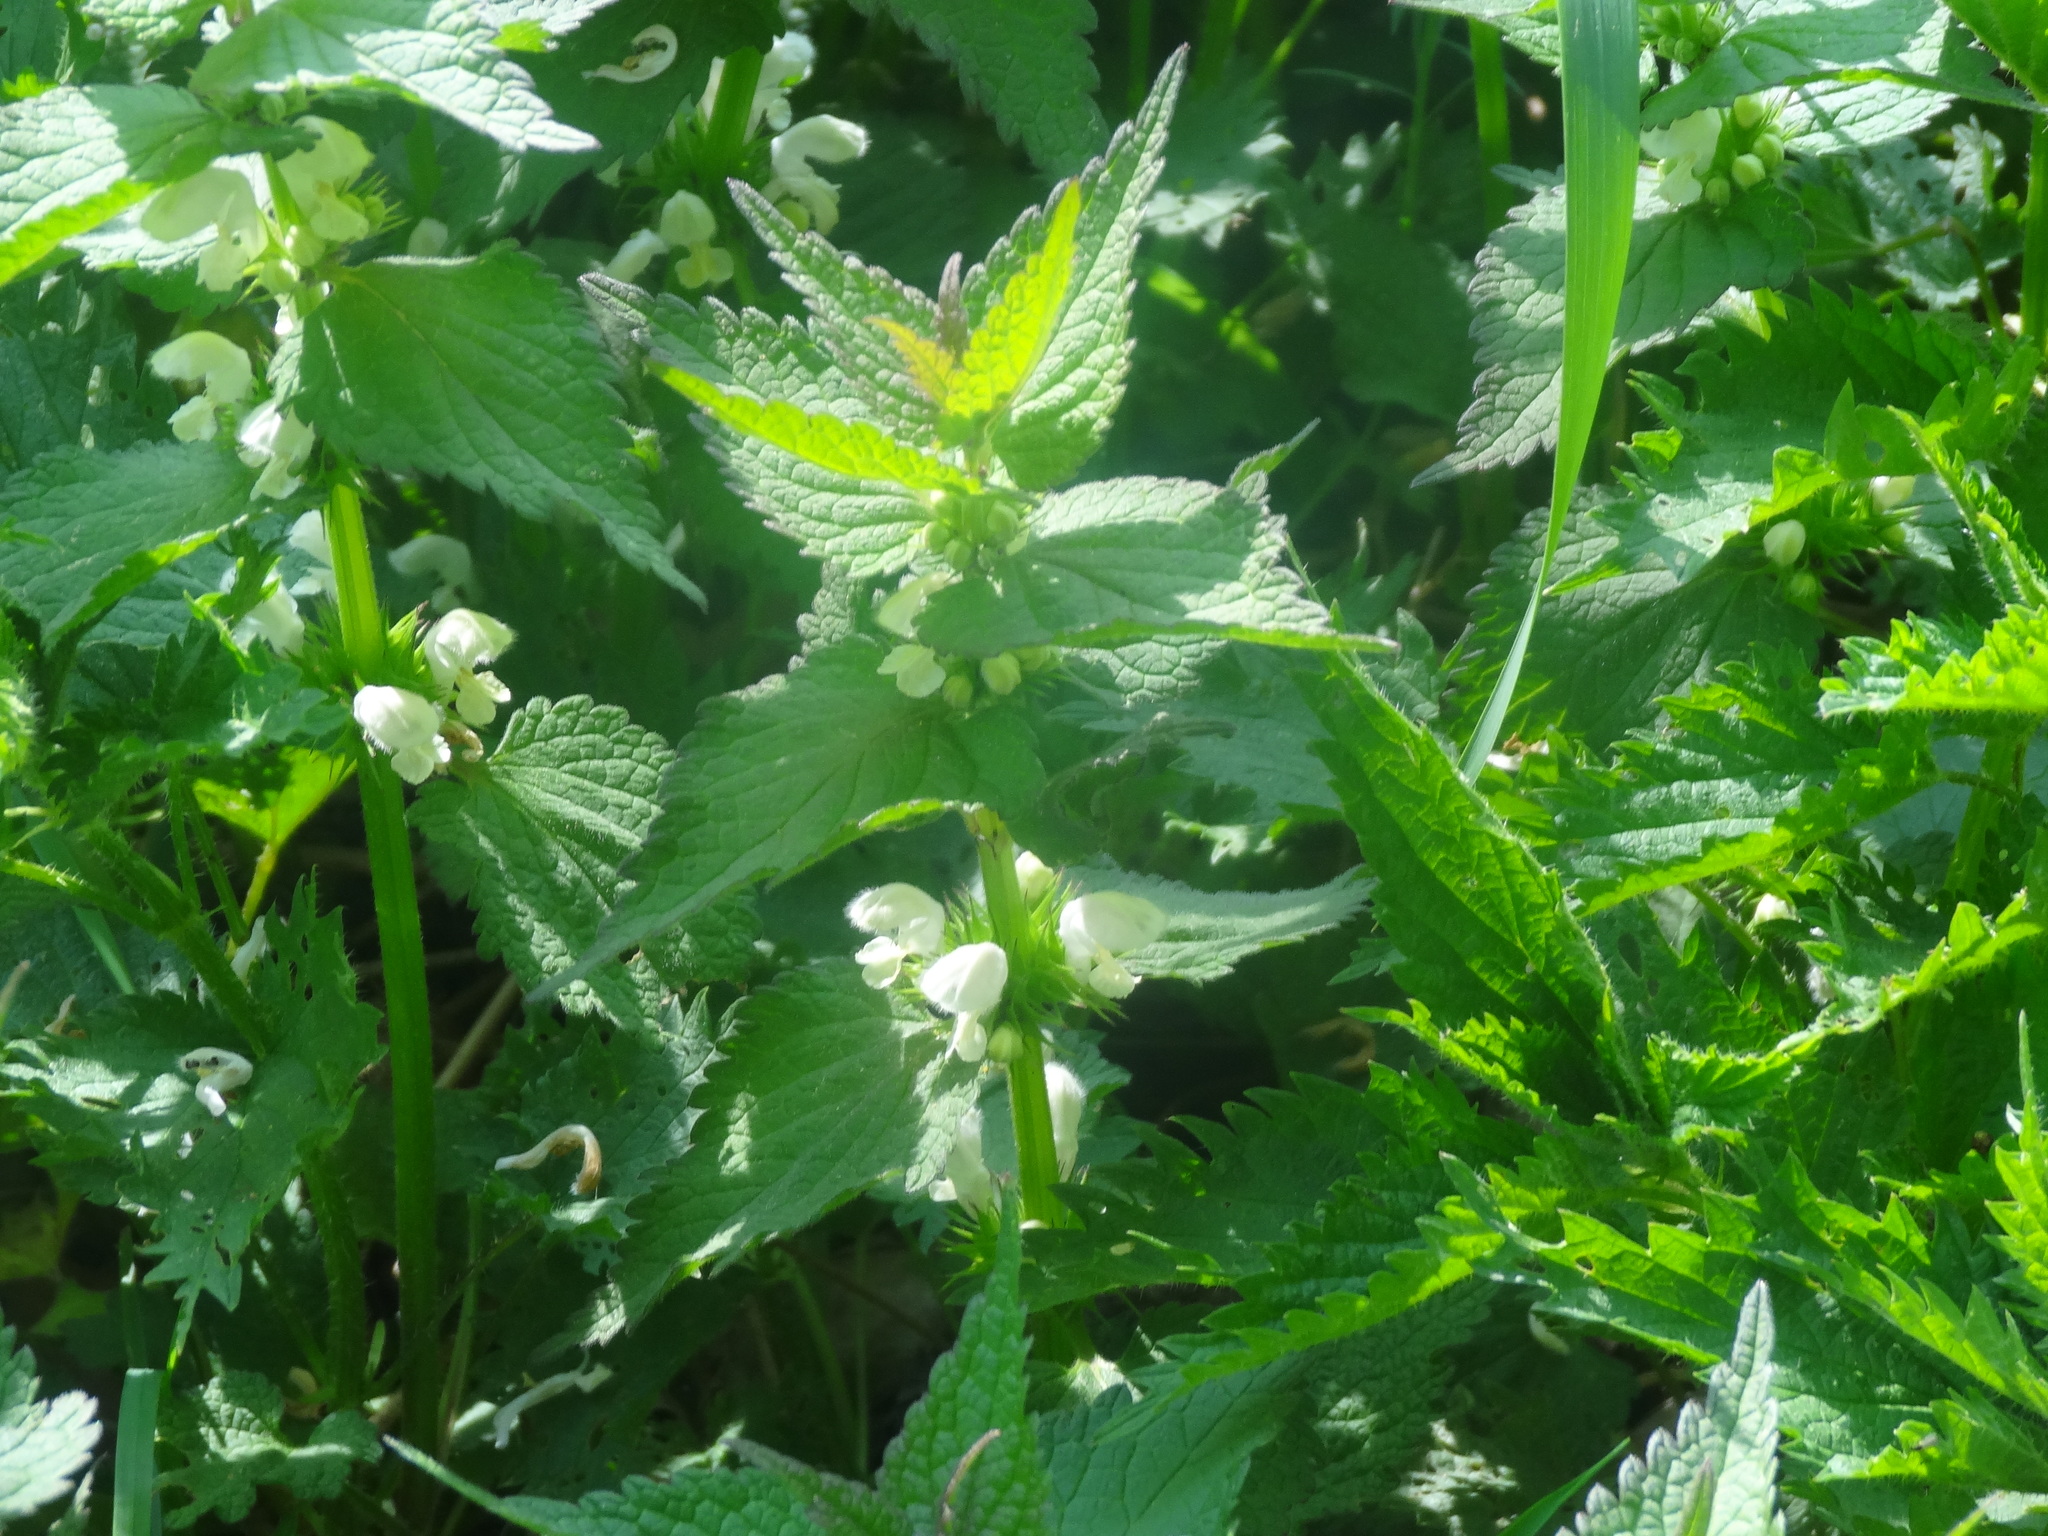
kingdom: Plantae
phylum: Tracheophyta
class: Magnoliopsida
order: Lamiales
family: Lamiaceae
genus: Lamium
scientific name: Lamium album
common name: White dead-nettle
